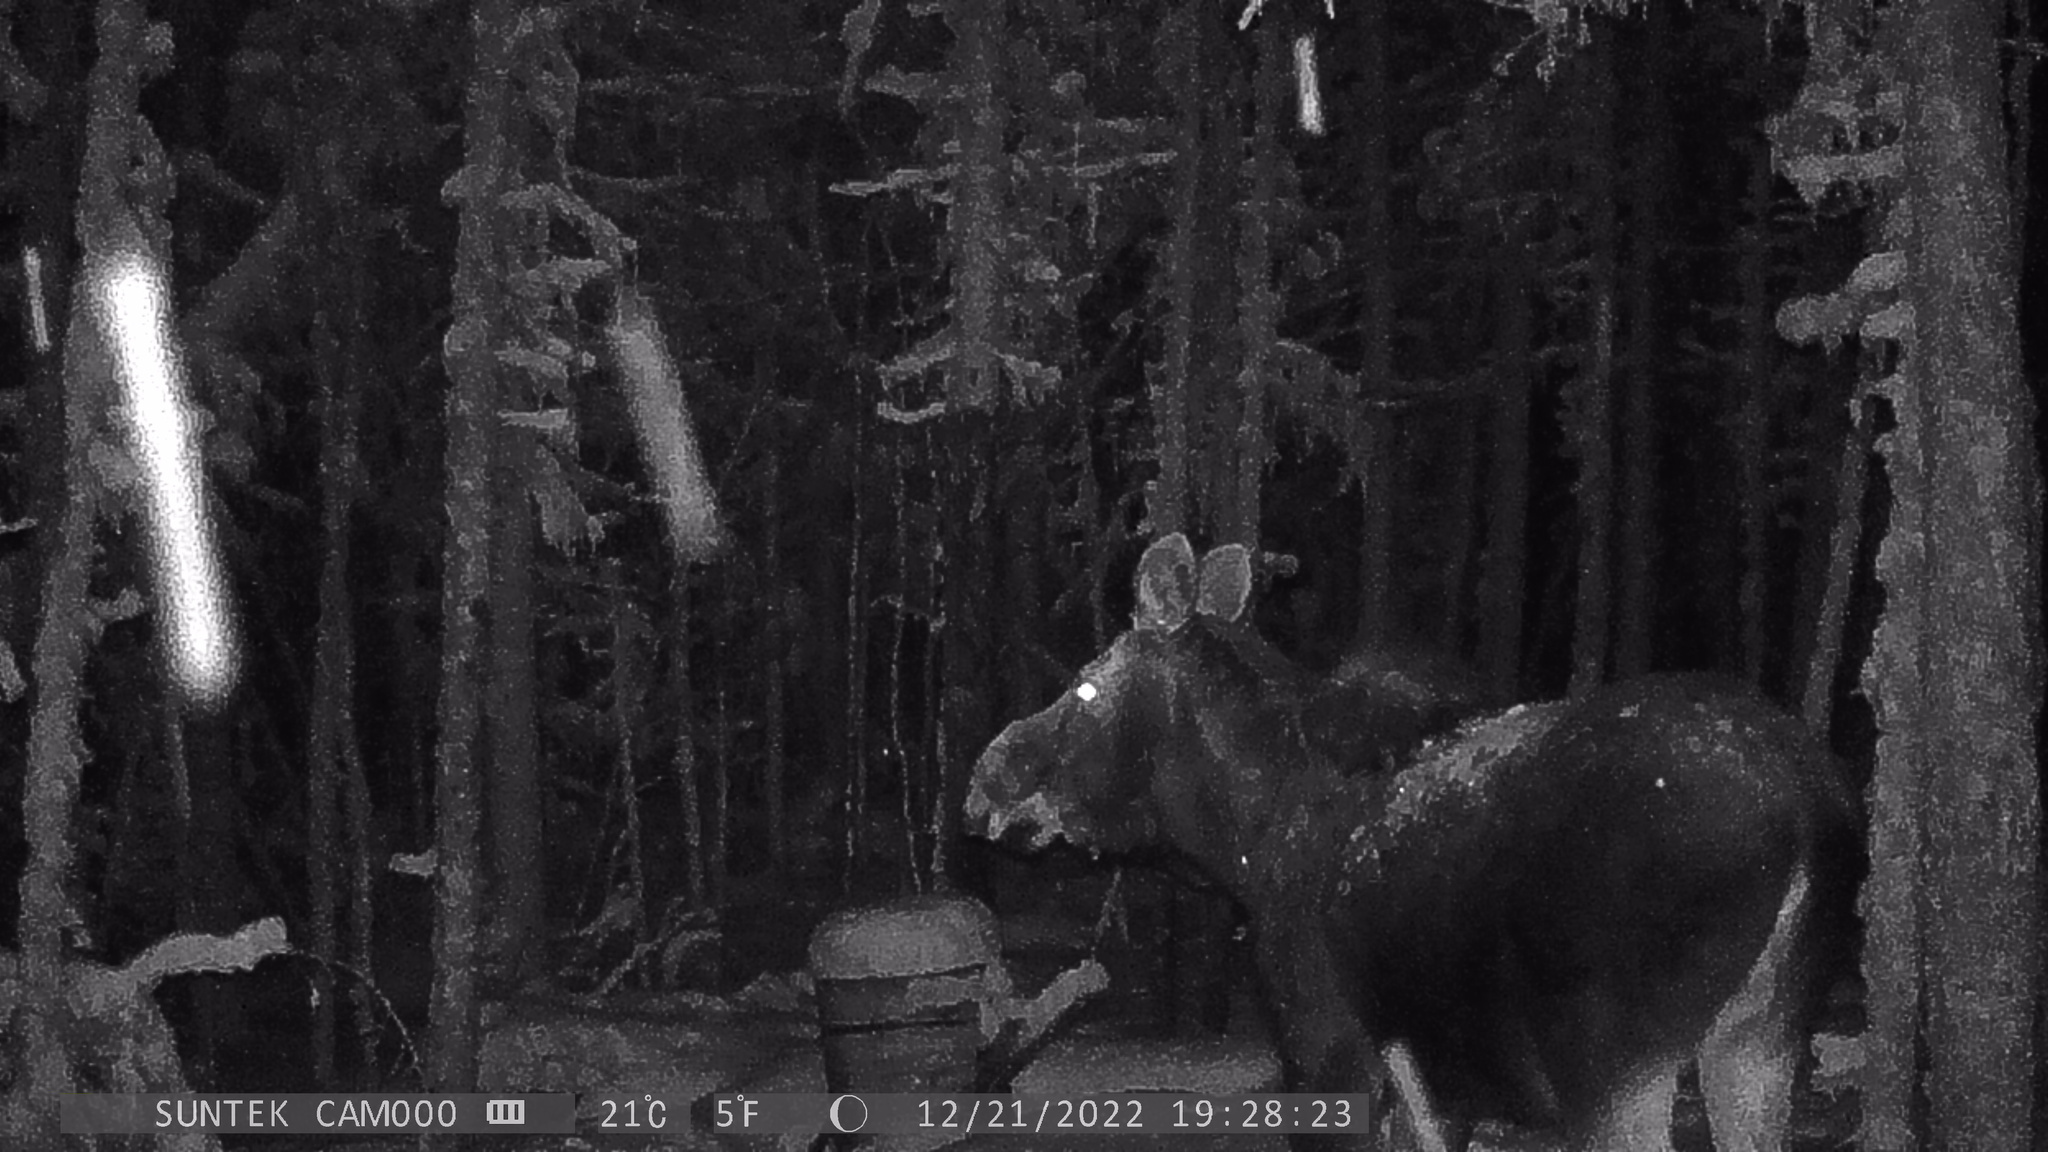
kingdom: Animalia
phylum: Chordata
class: Mammalia
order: Artiodactyla
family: Cervidae
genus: Alces
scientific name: Alces alces
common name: Moose
